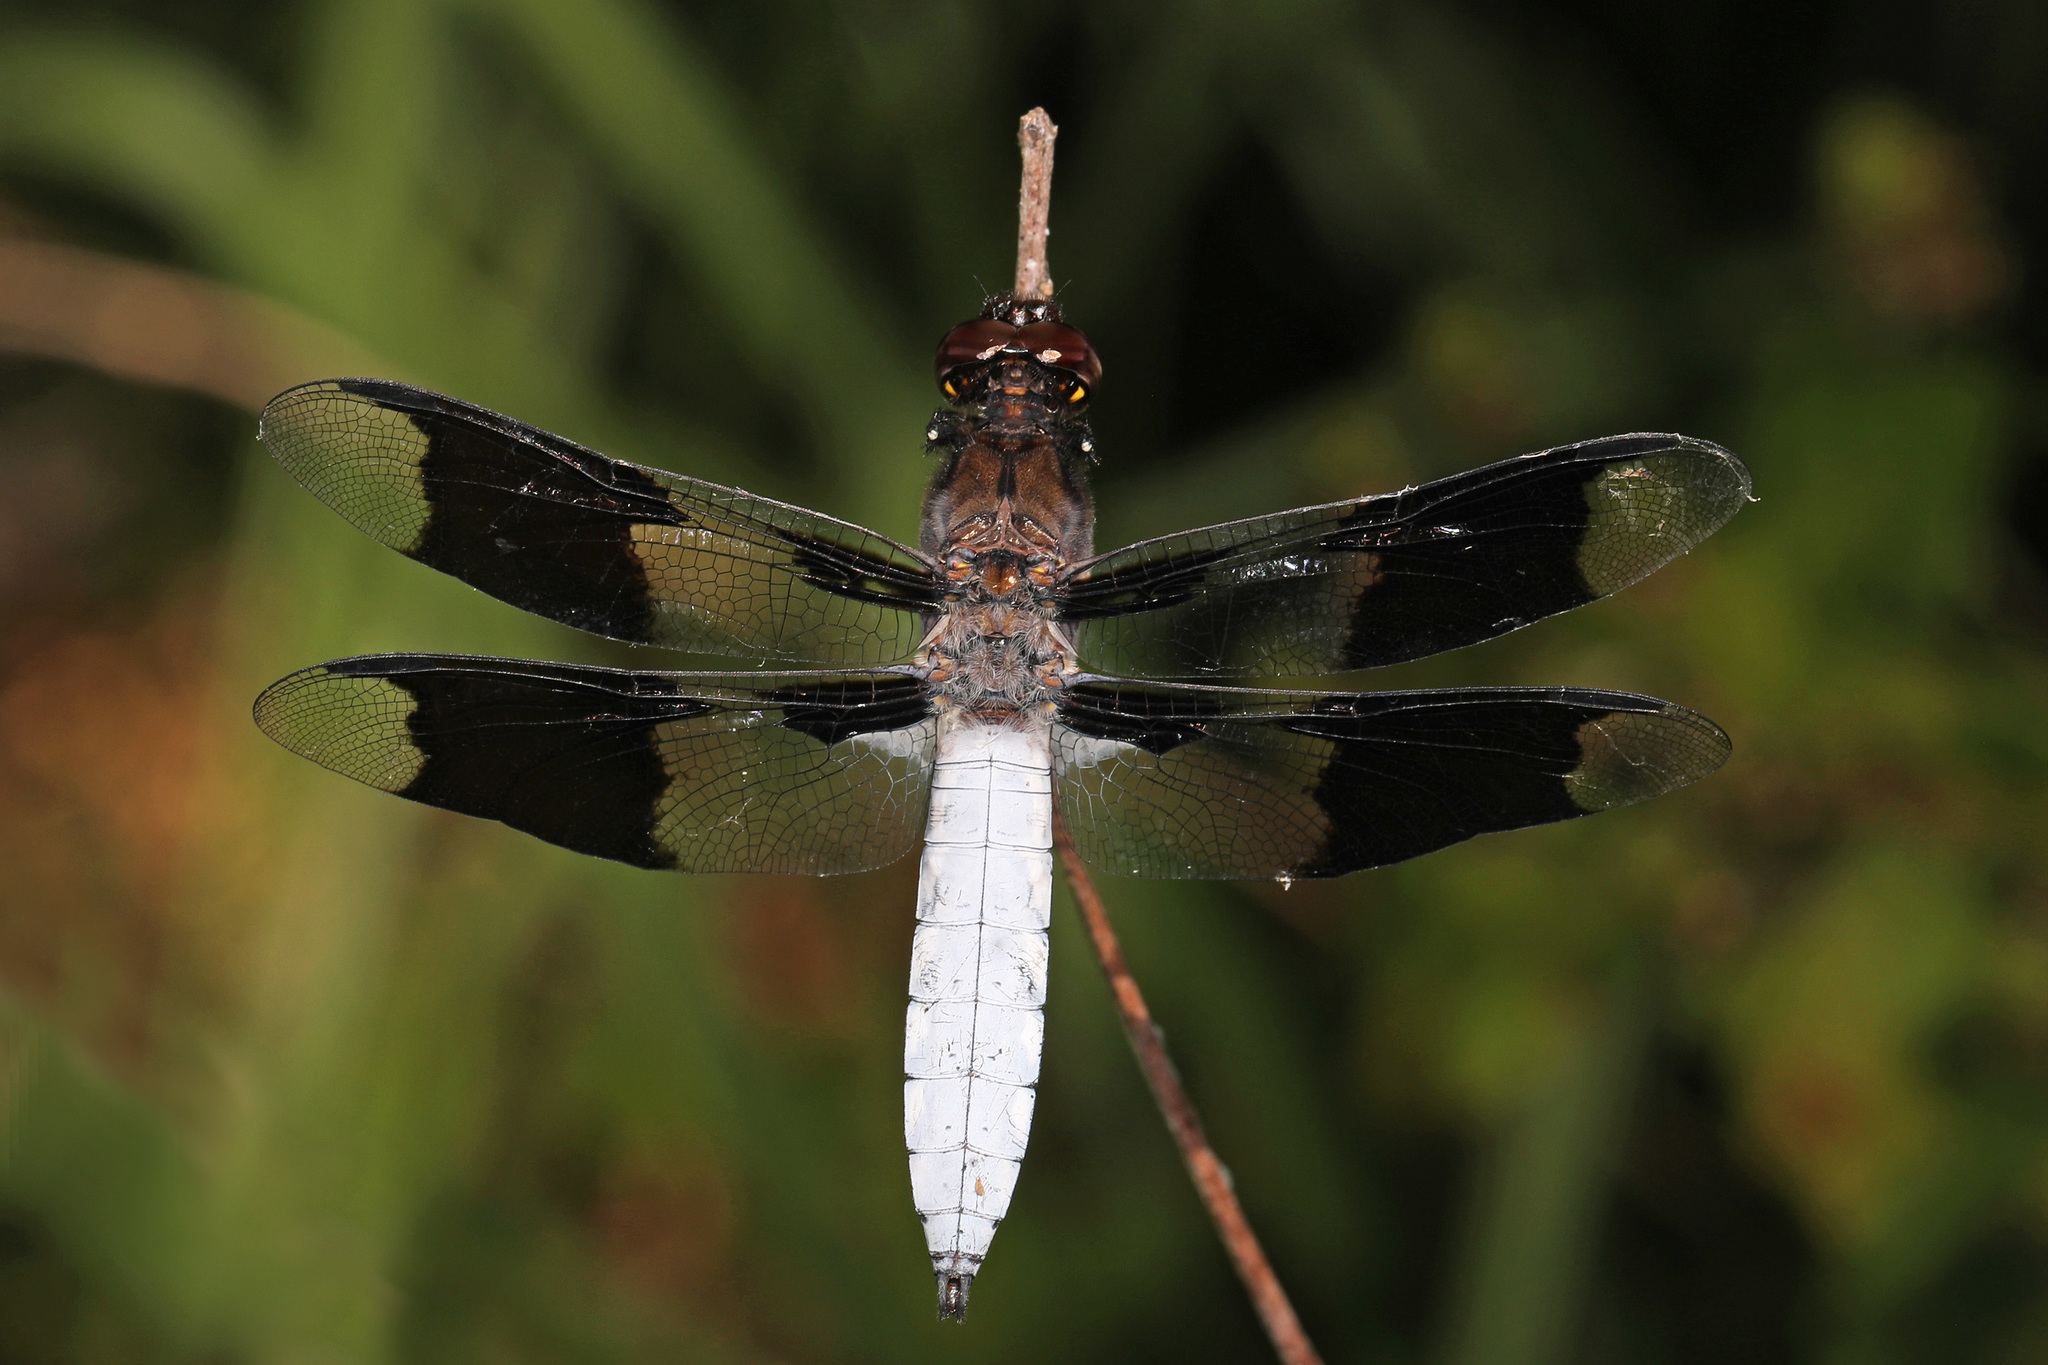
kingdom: Animalia
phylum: Arthropoda
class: Insecta
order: Odonata
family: Libellulidae
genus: Plathemis
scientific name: Plathemis lydia
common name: Common whitetail
